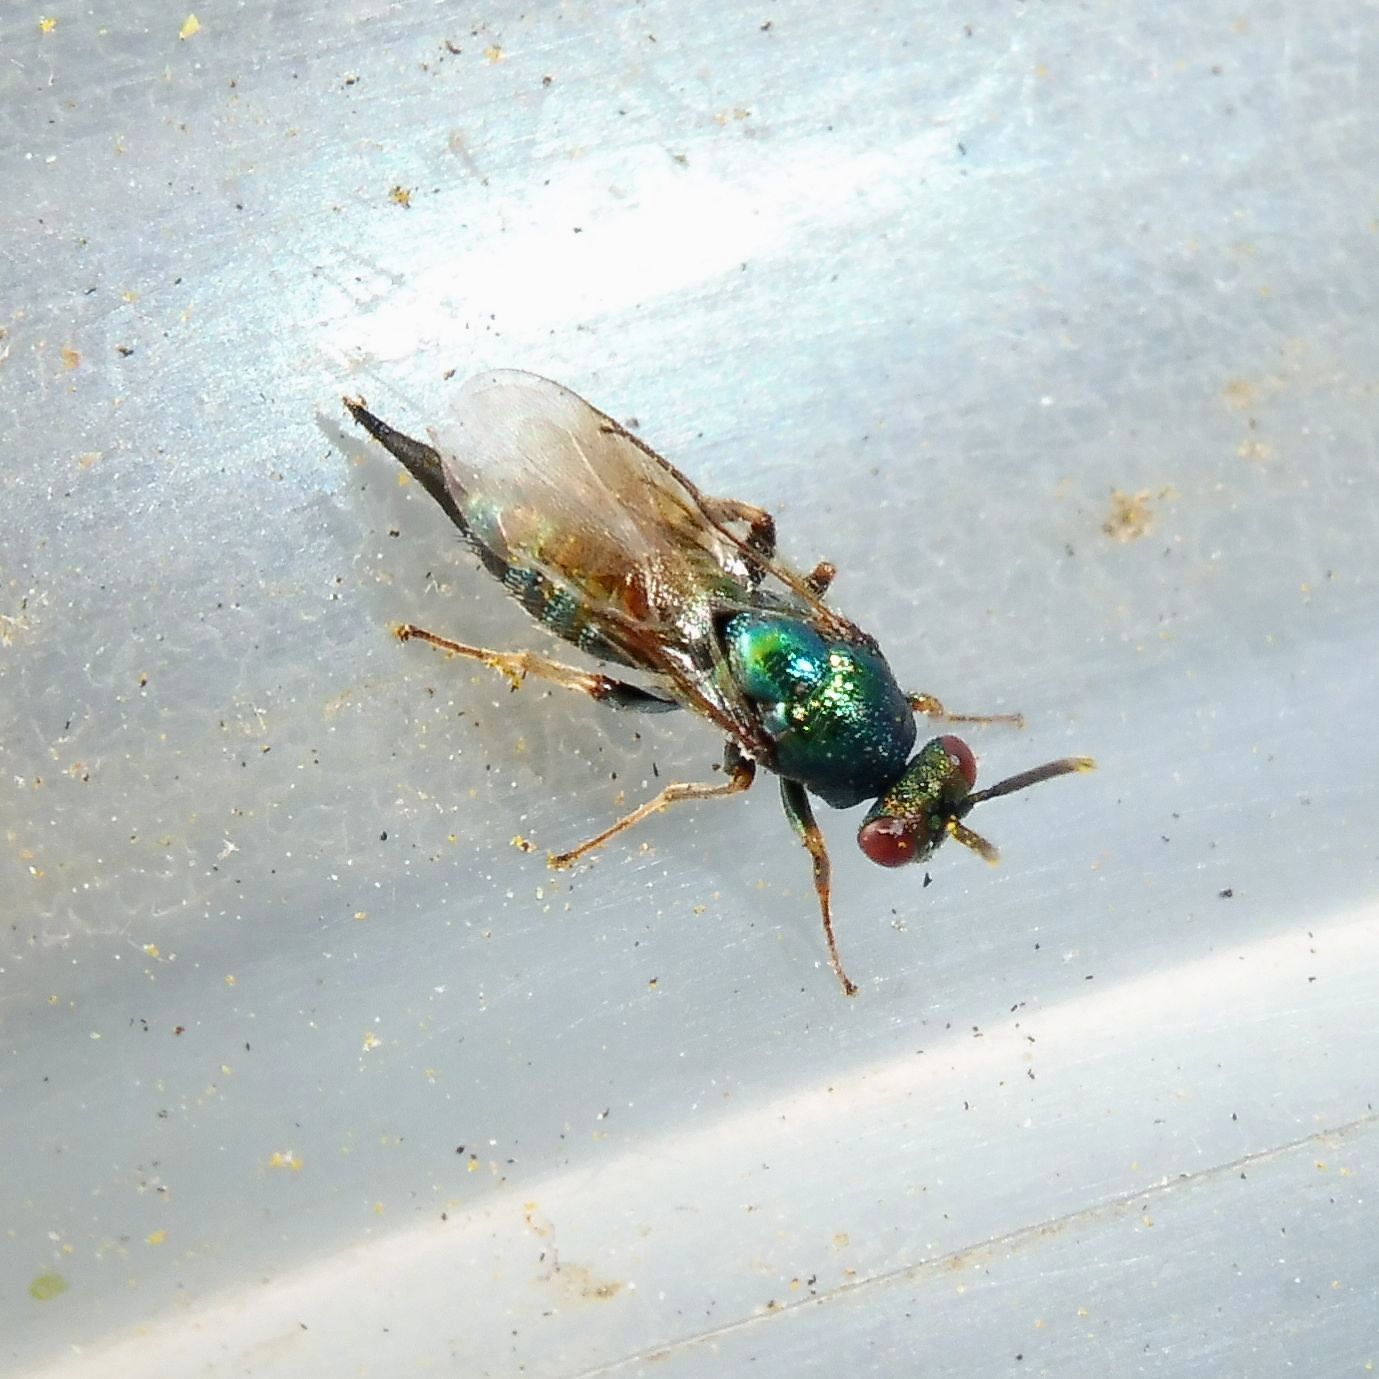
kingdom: Animalia
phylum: Arthropoda
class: Insecta
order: Hymenoptera
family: Ormyridae
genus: Ormyrus
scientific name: Ormyrus nitidulus
